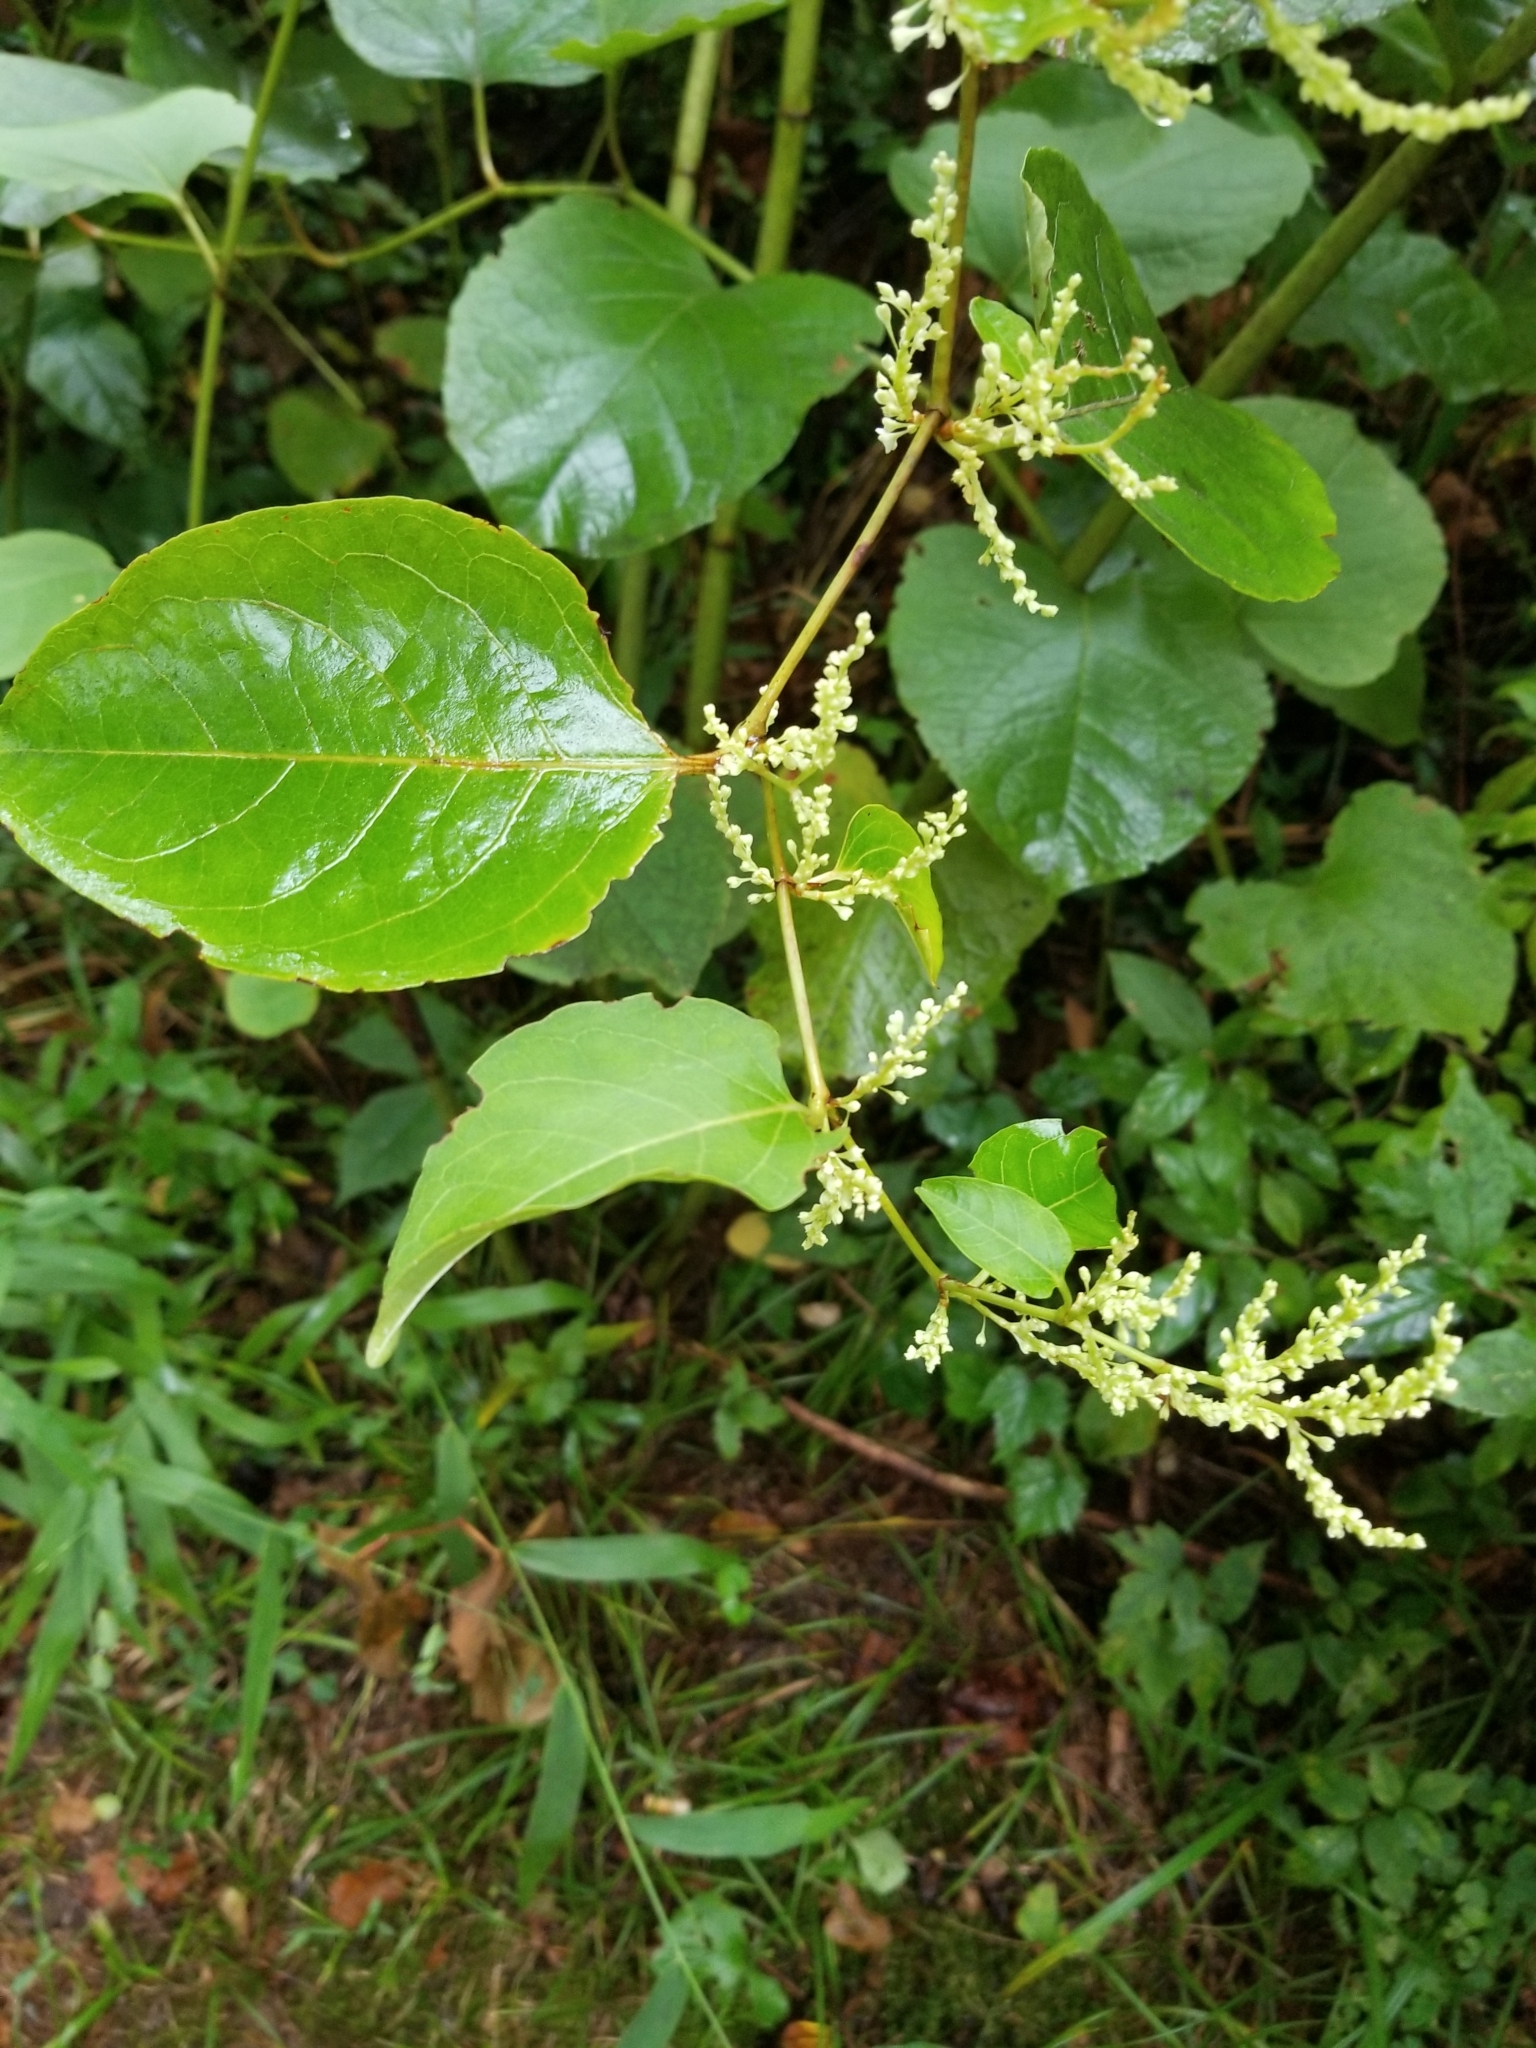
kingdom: Plantae
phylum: Tracheophyta
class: Magnoliopsida
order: Caryophyllales
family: Polygonaceae
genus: Reynoutria
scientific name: Reynoutria japonica
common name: Japanese knotweed
